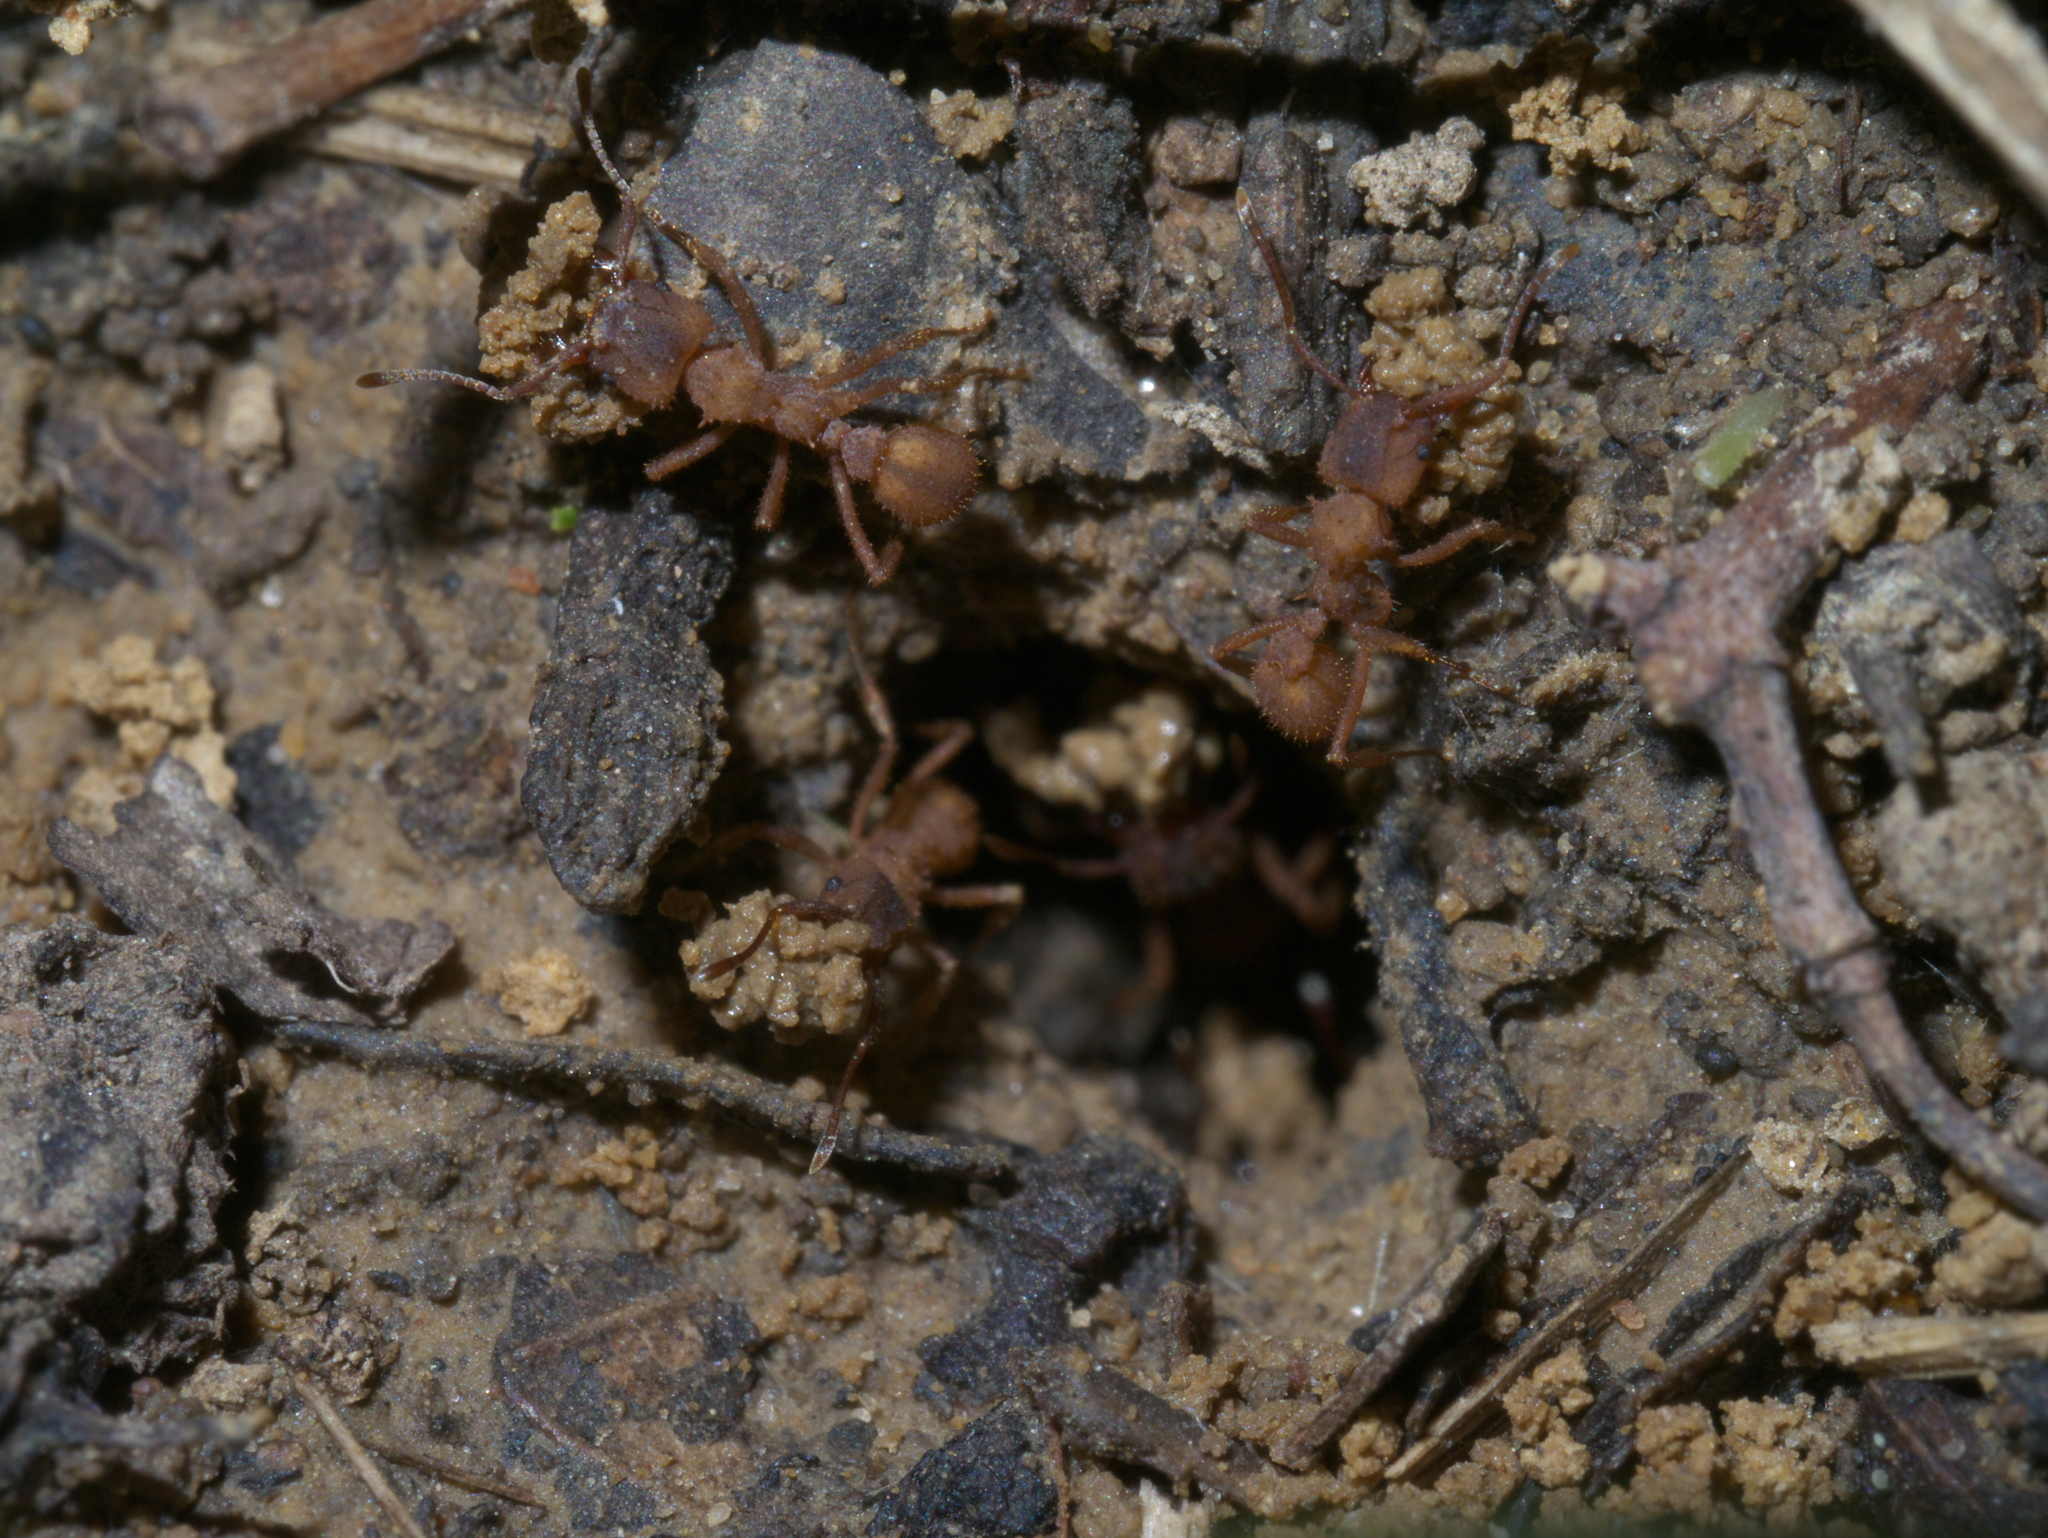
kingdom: Animalia
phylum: Arthropoda
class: Insecta
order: Hymenoptera
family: Formicidae
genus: Trachymyrmex
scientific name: Trachymyrmex septentrionalis
